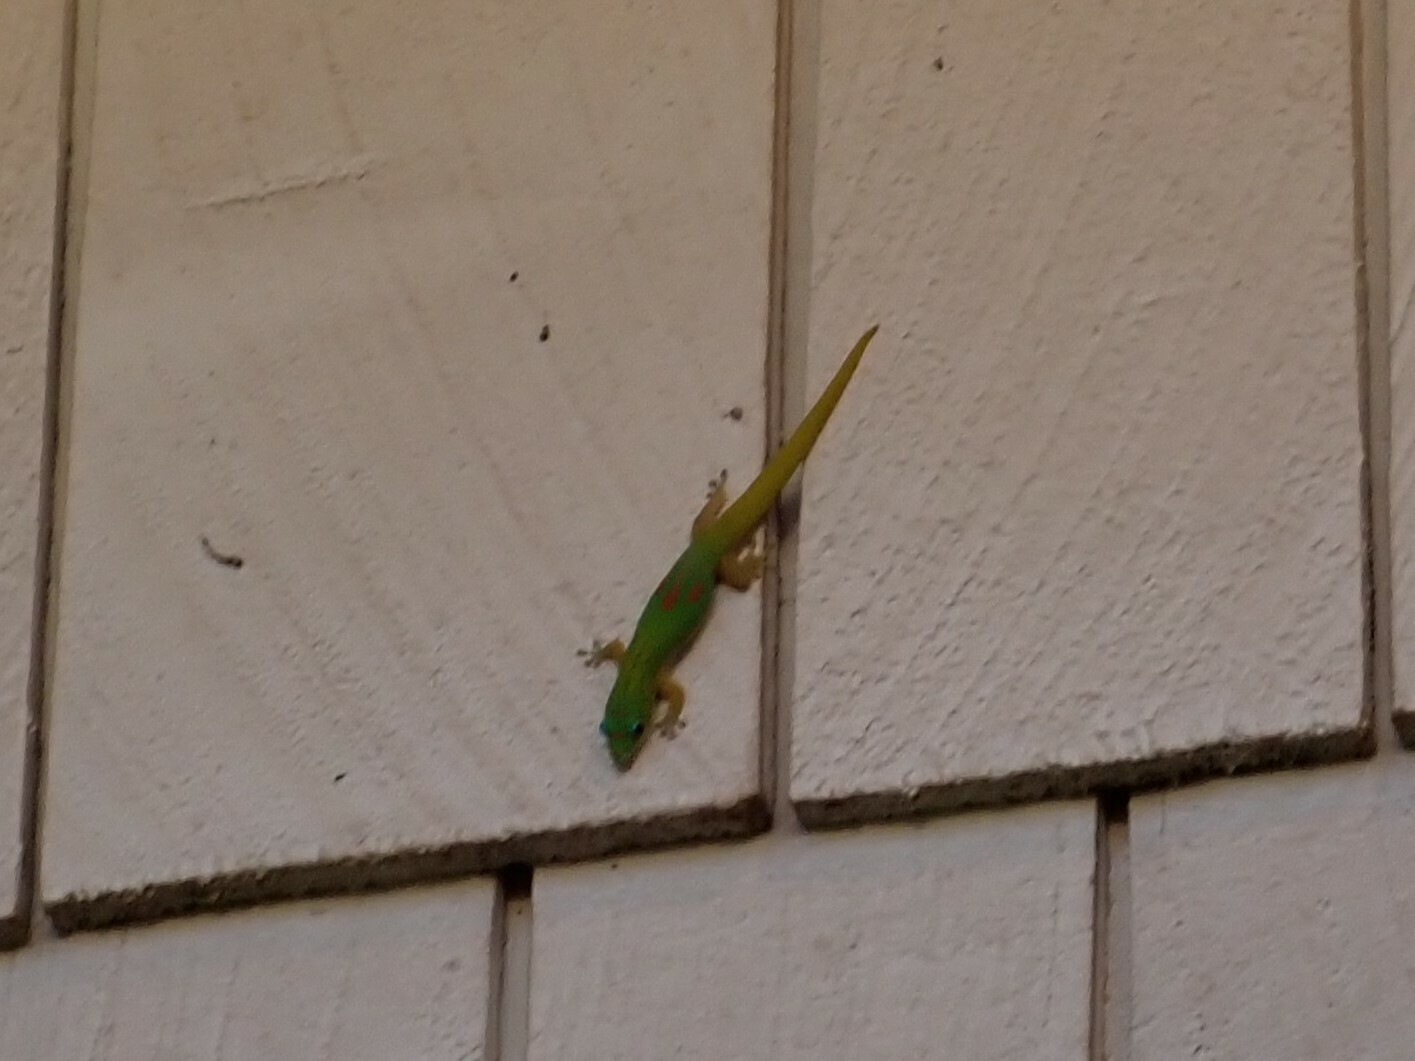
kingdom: Animalia
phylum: Chordata
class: Squamata
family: Gekkonidae
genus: Phelsuma
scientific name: Phelsuma laticauda
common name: Gold dust day gecko
